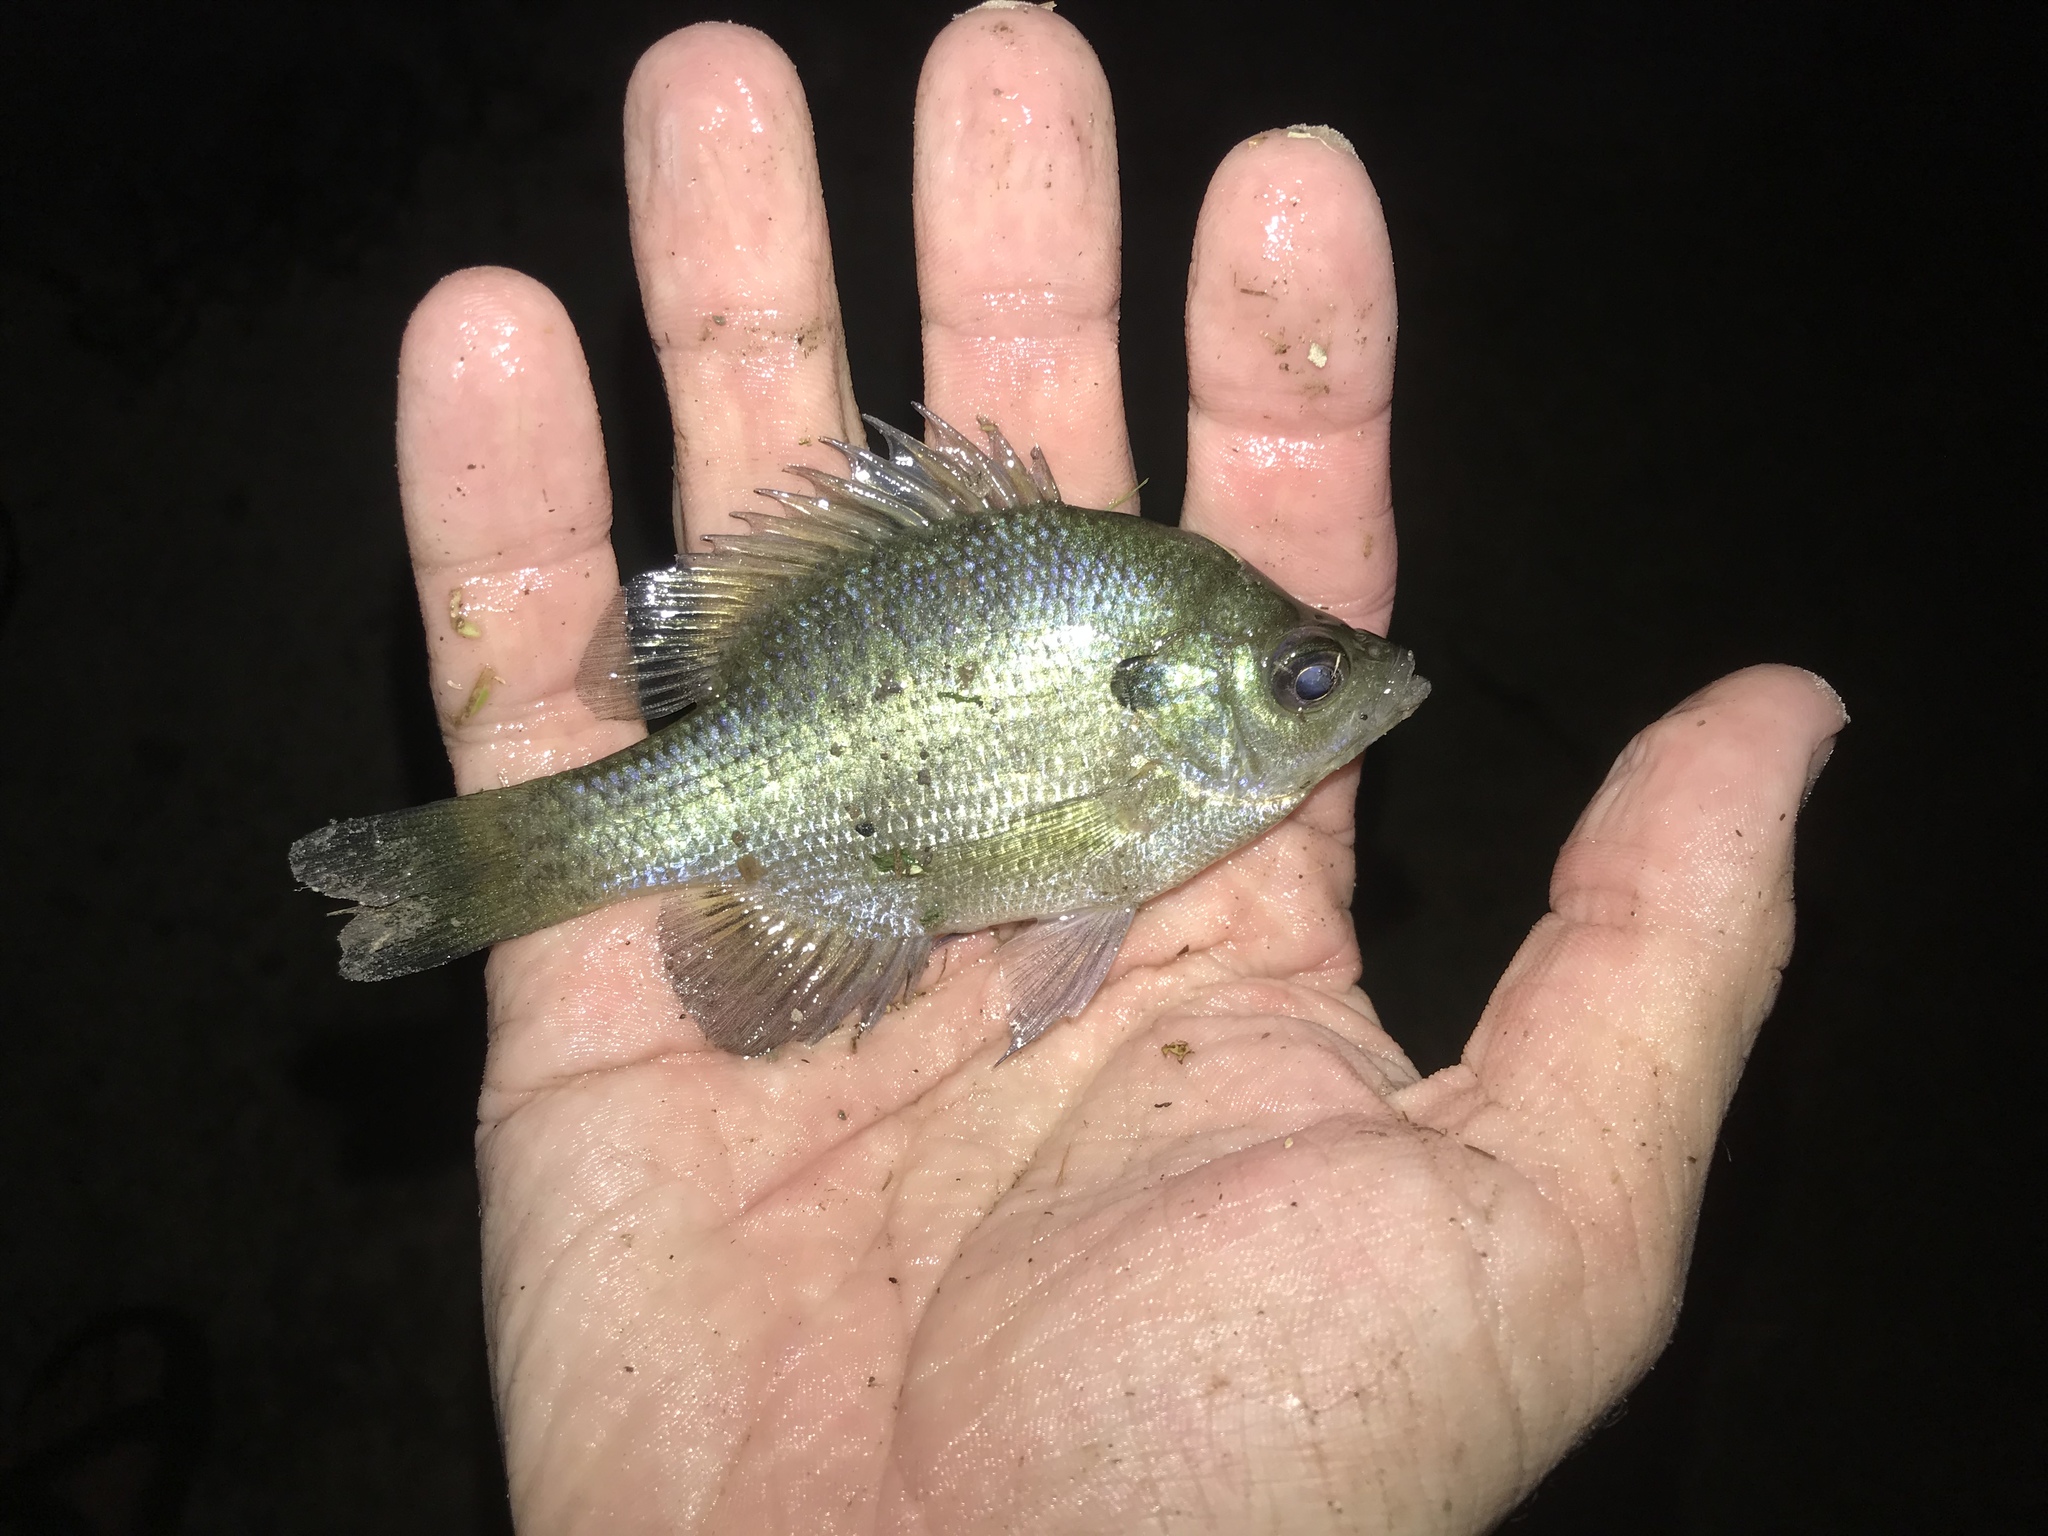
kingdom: Animalia
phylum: Chordata
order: Perciformes
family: Centrarchidae
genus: Lepomis
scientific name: Lepomis macrochirus
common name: Bluegill
